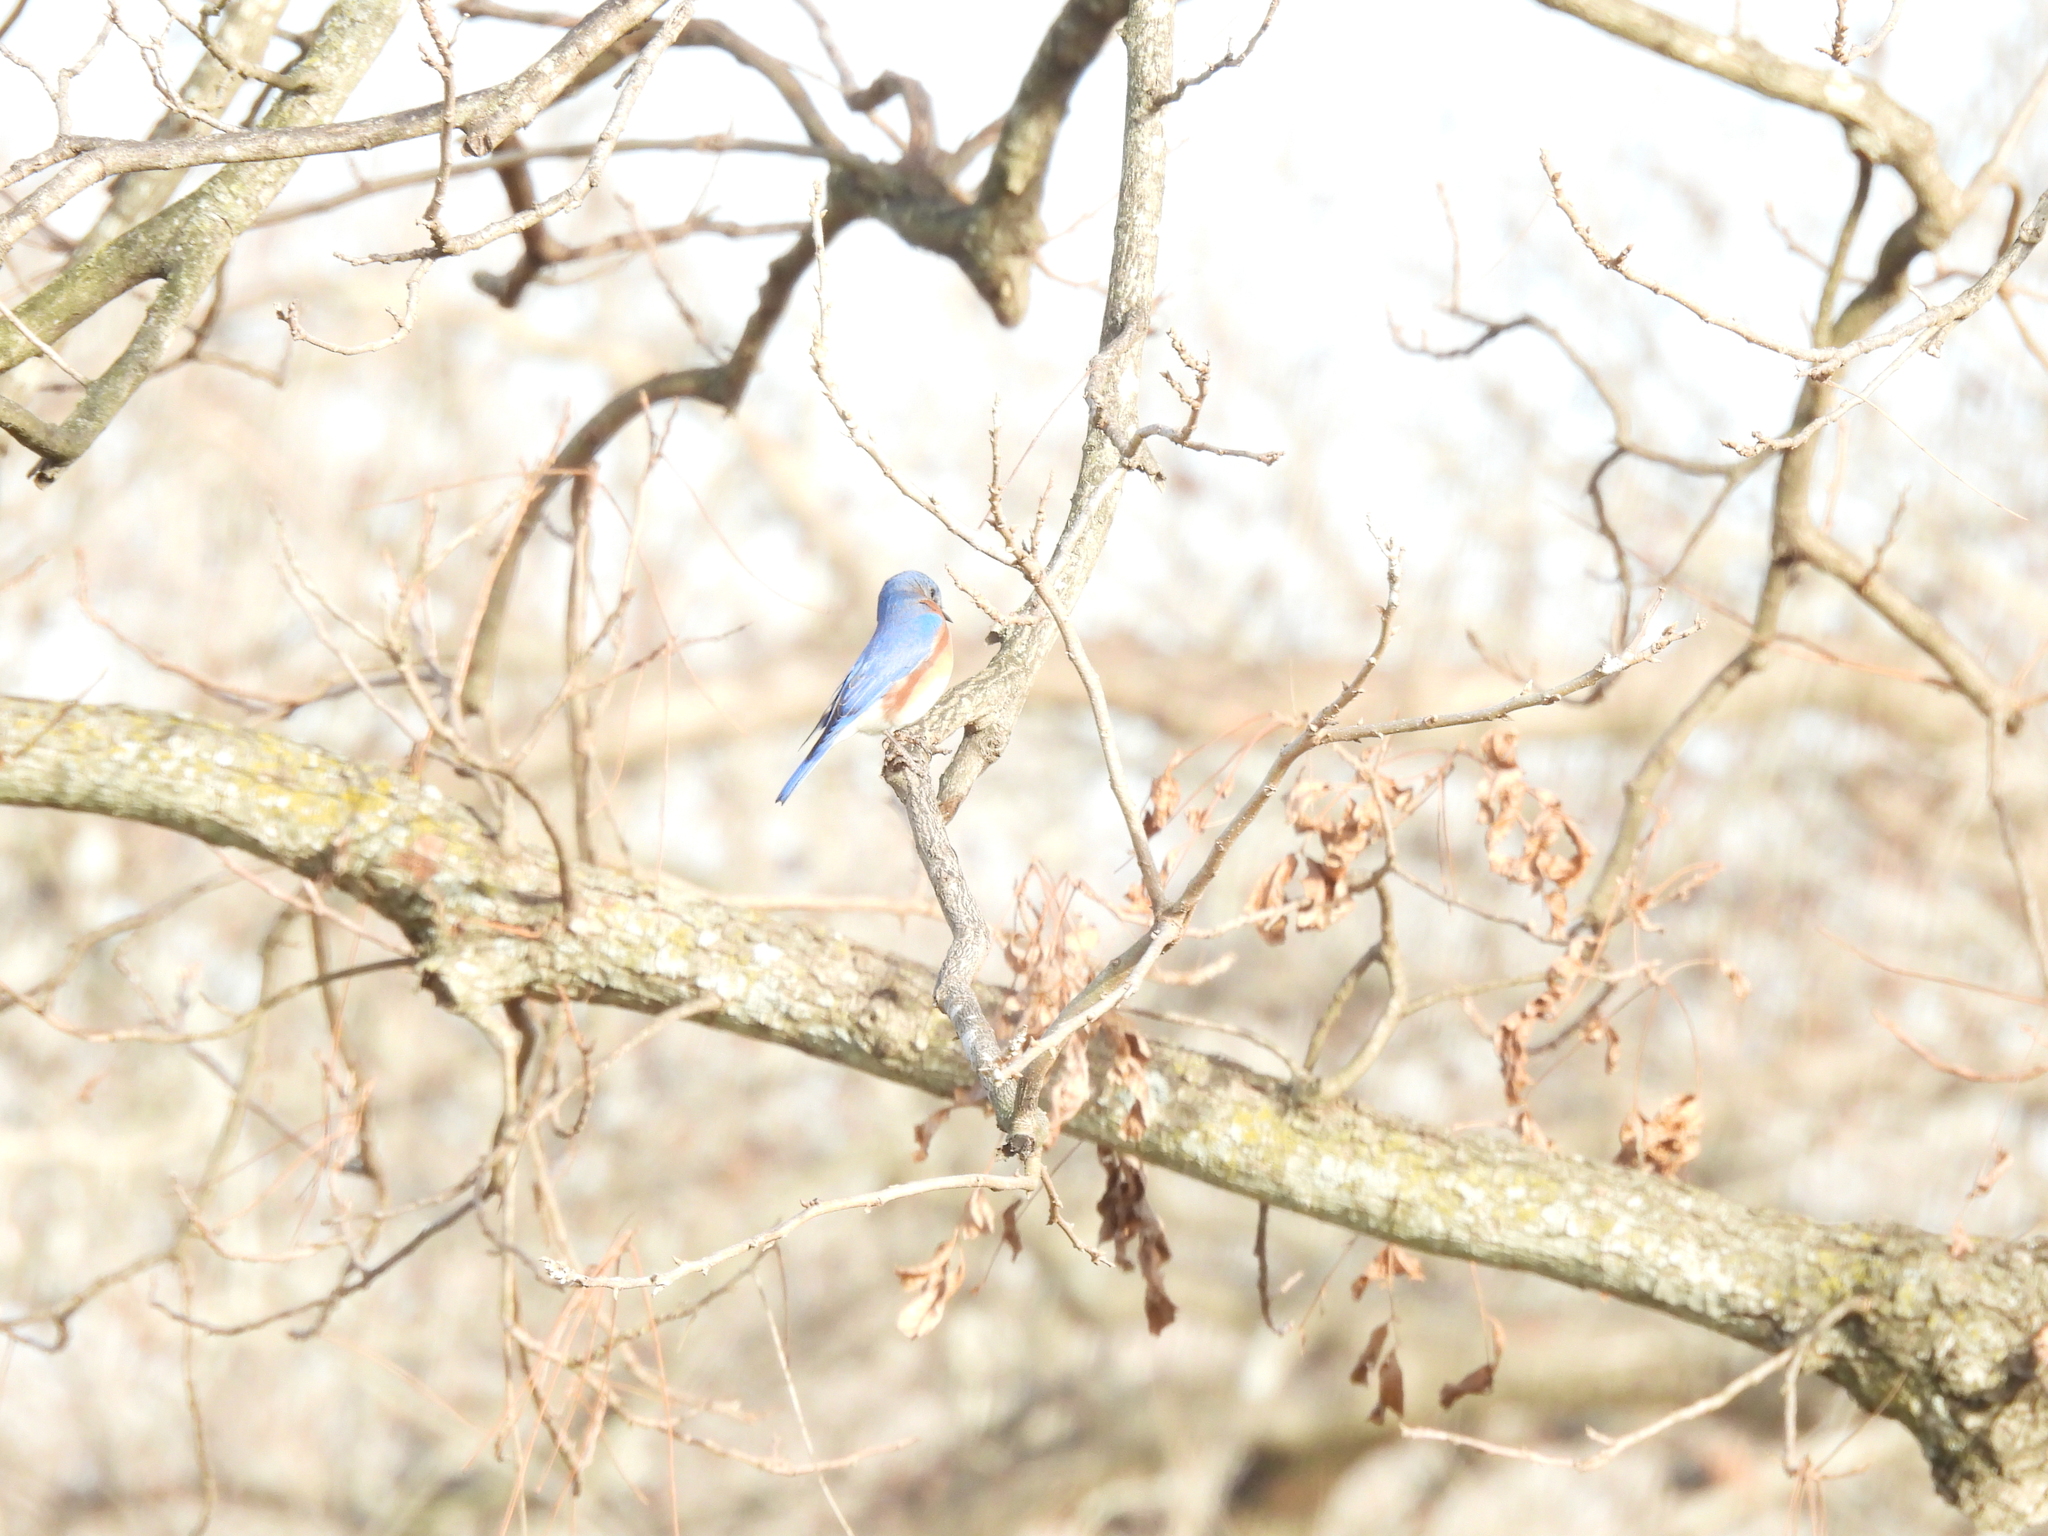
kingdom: Animalia
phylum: Chordata
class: Aves
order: Passeriformes
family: Turdidae
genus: Sialia
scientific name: Sialia sialis
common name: Eastern bluebird
